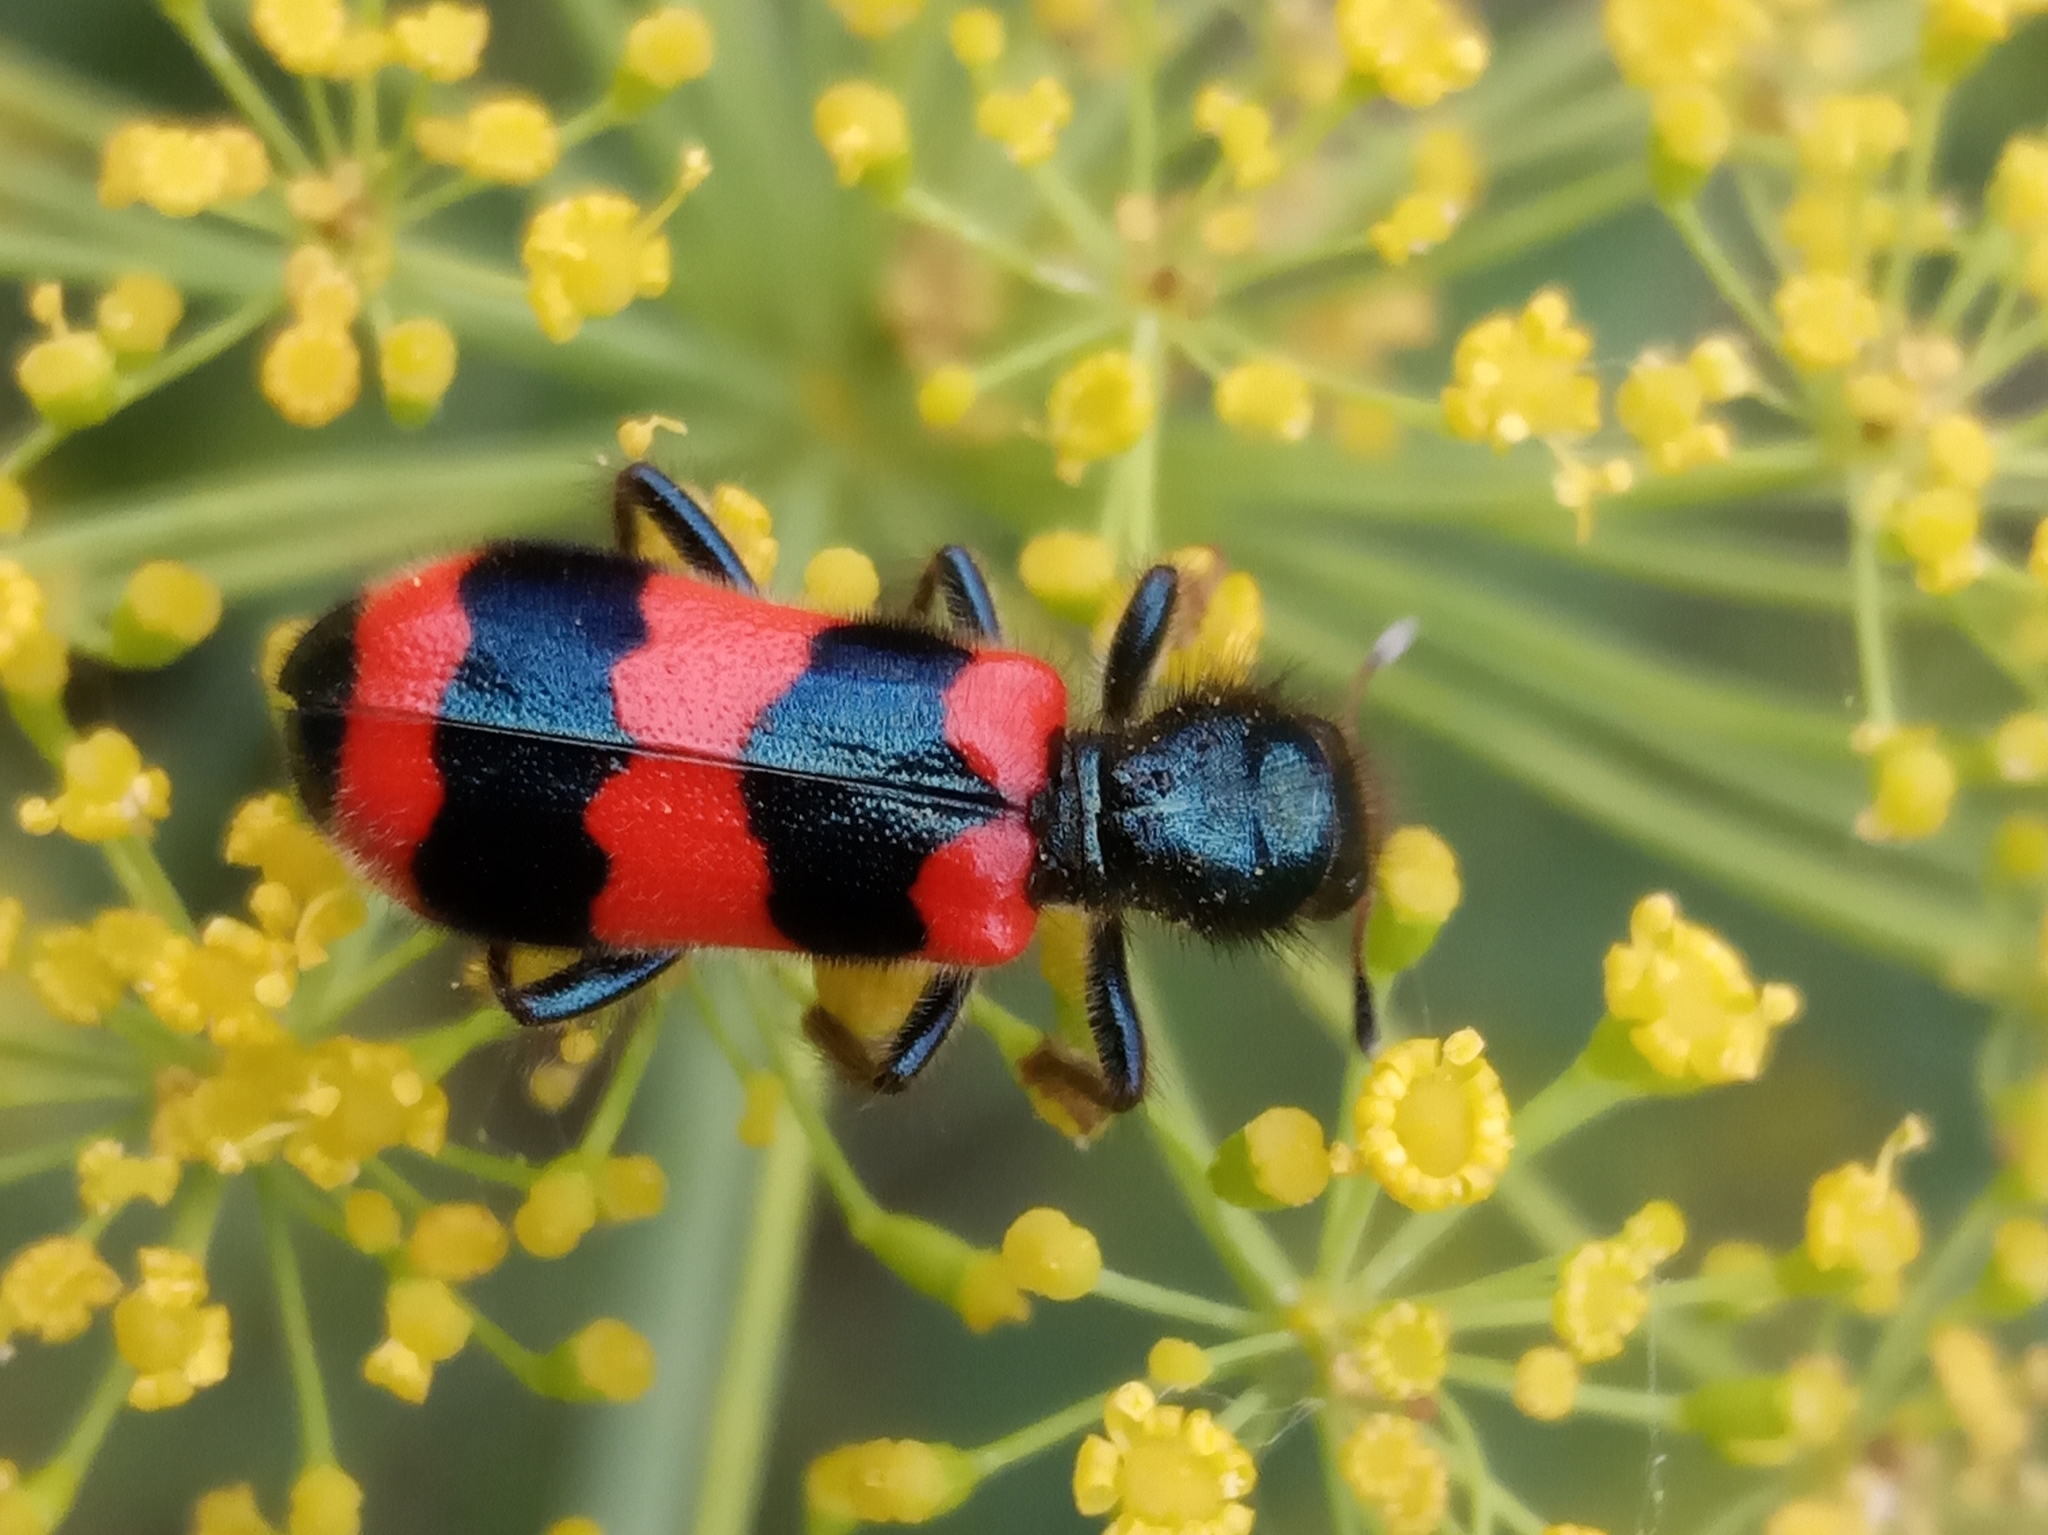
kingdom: Animalia
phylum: Arthropoda
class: Insecta
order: Coleoptera
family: Cleridae
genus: Trichodes
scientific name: Trichodes apiarius
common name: Bee-eating beetle
